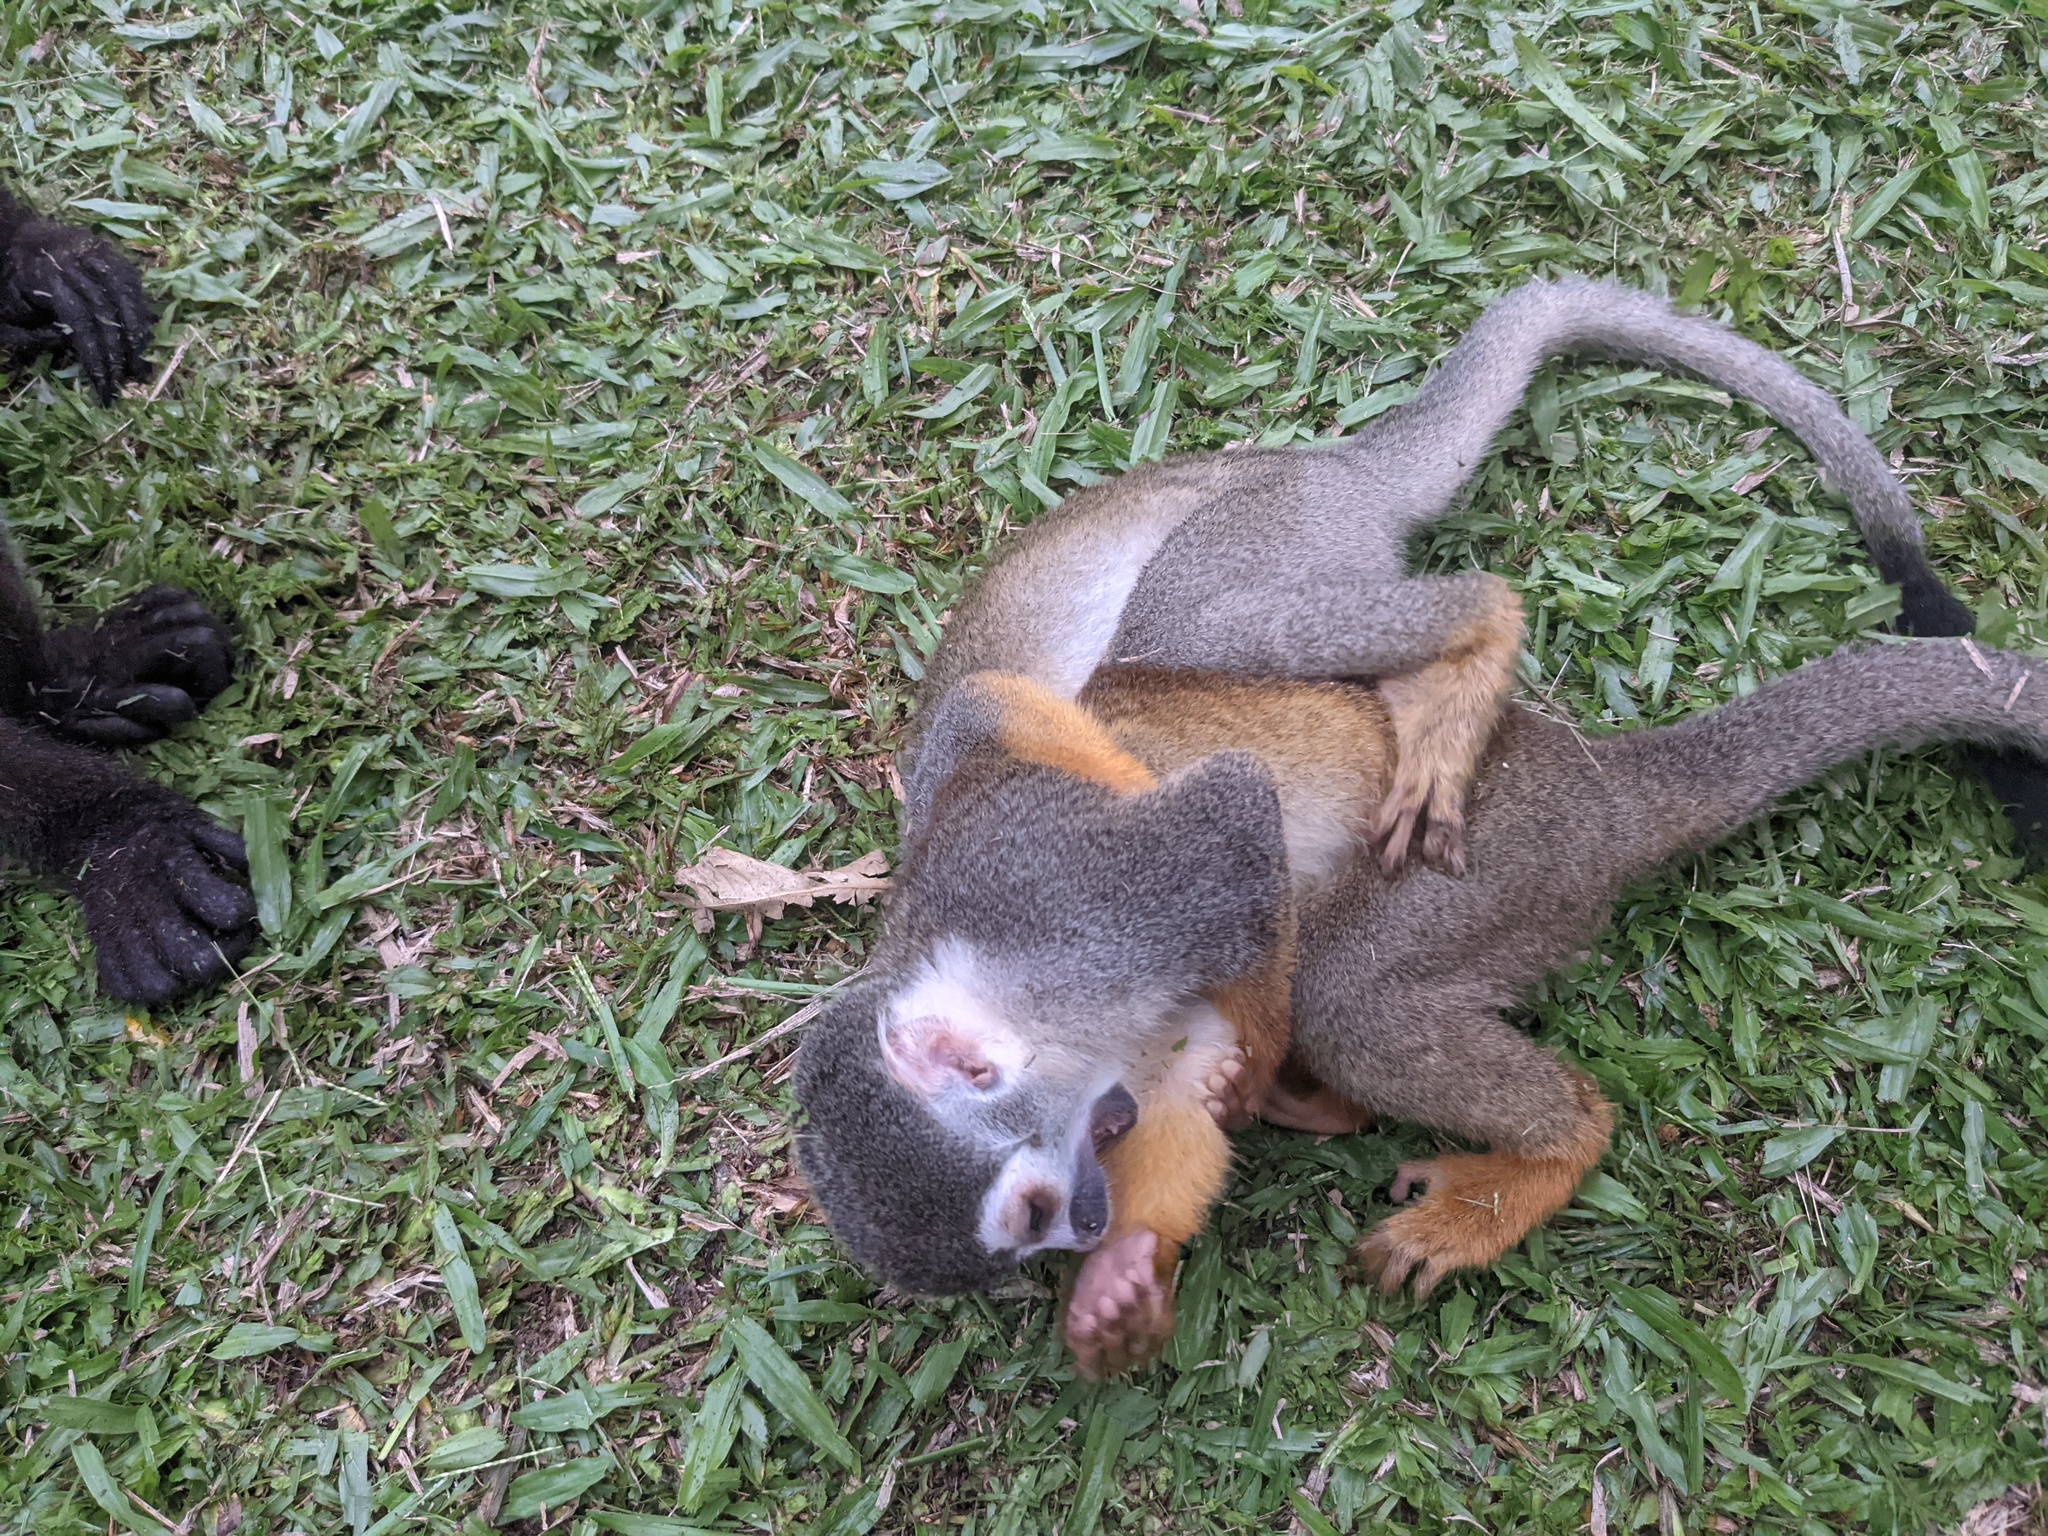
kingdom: Animalia
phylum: Chordata
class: Mammalia
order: Primates
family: Cebidae
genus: Saimiri
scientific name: Saimiri cassiquiarensis
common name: Humboldt’s squirrel monkey
